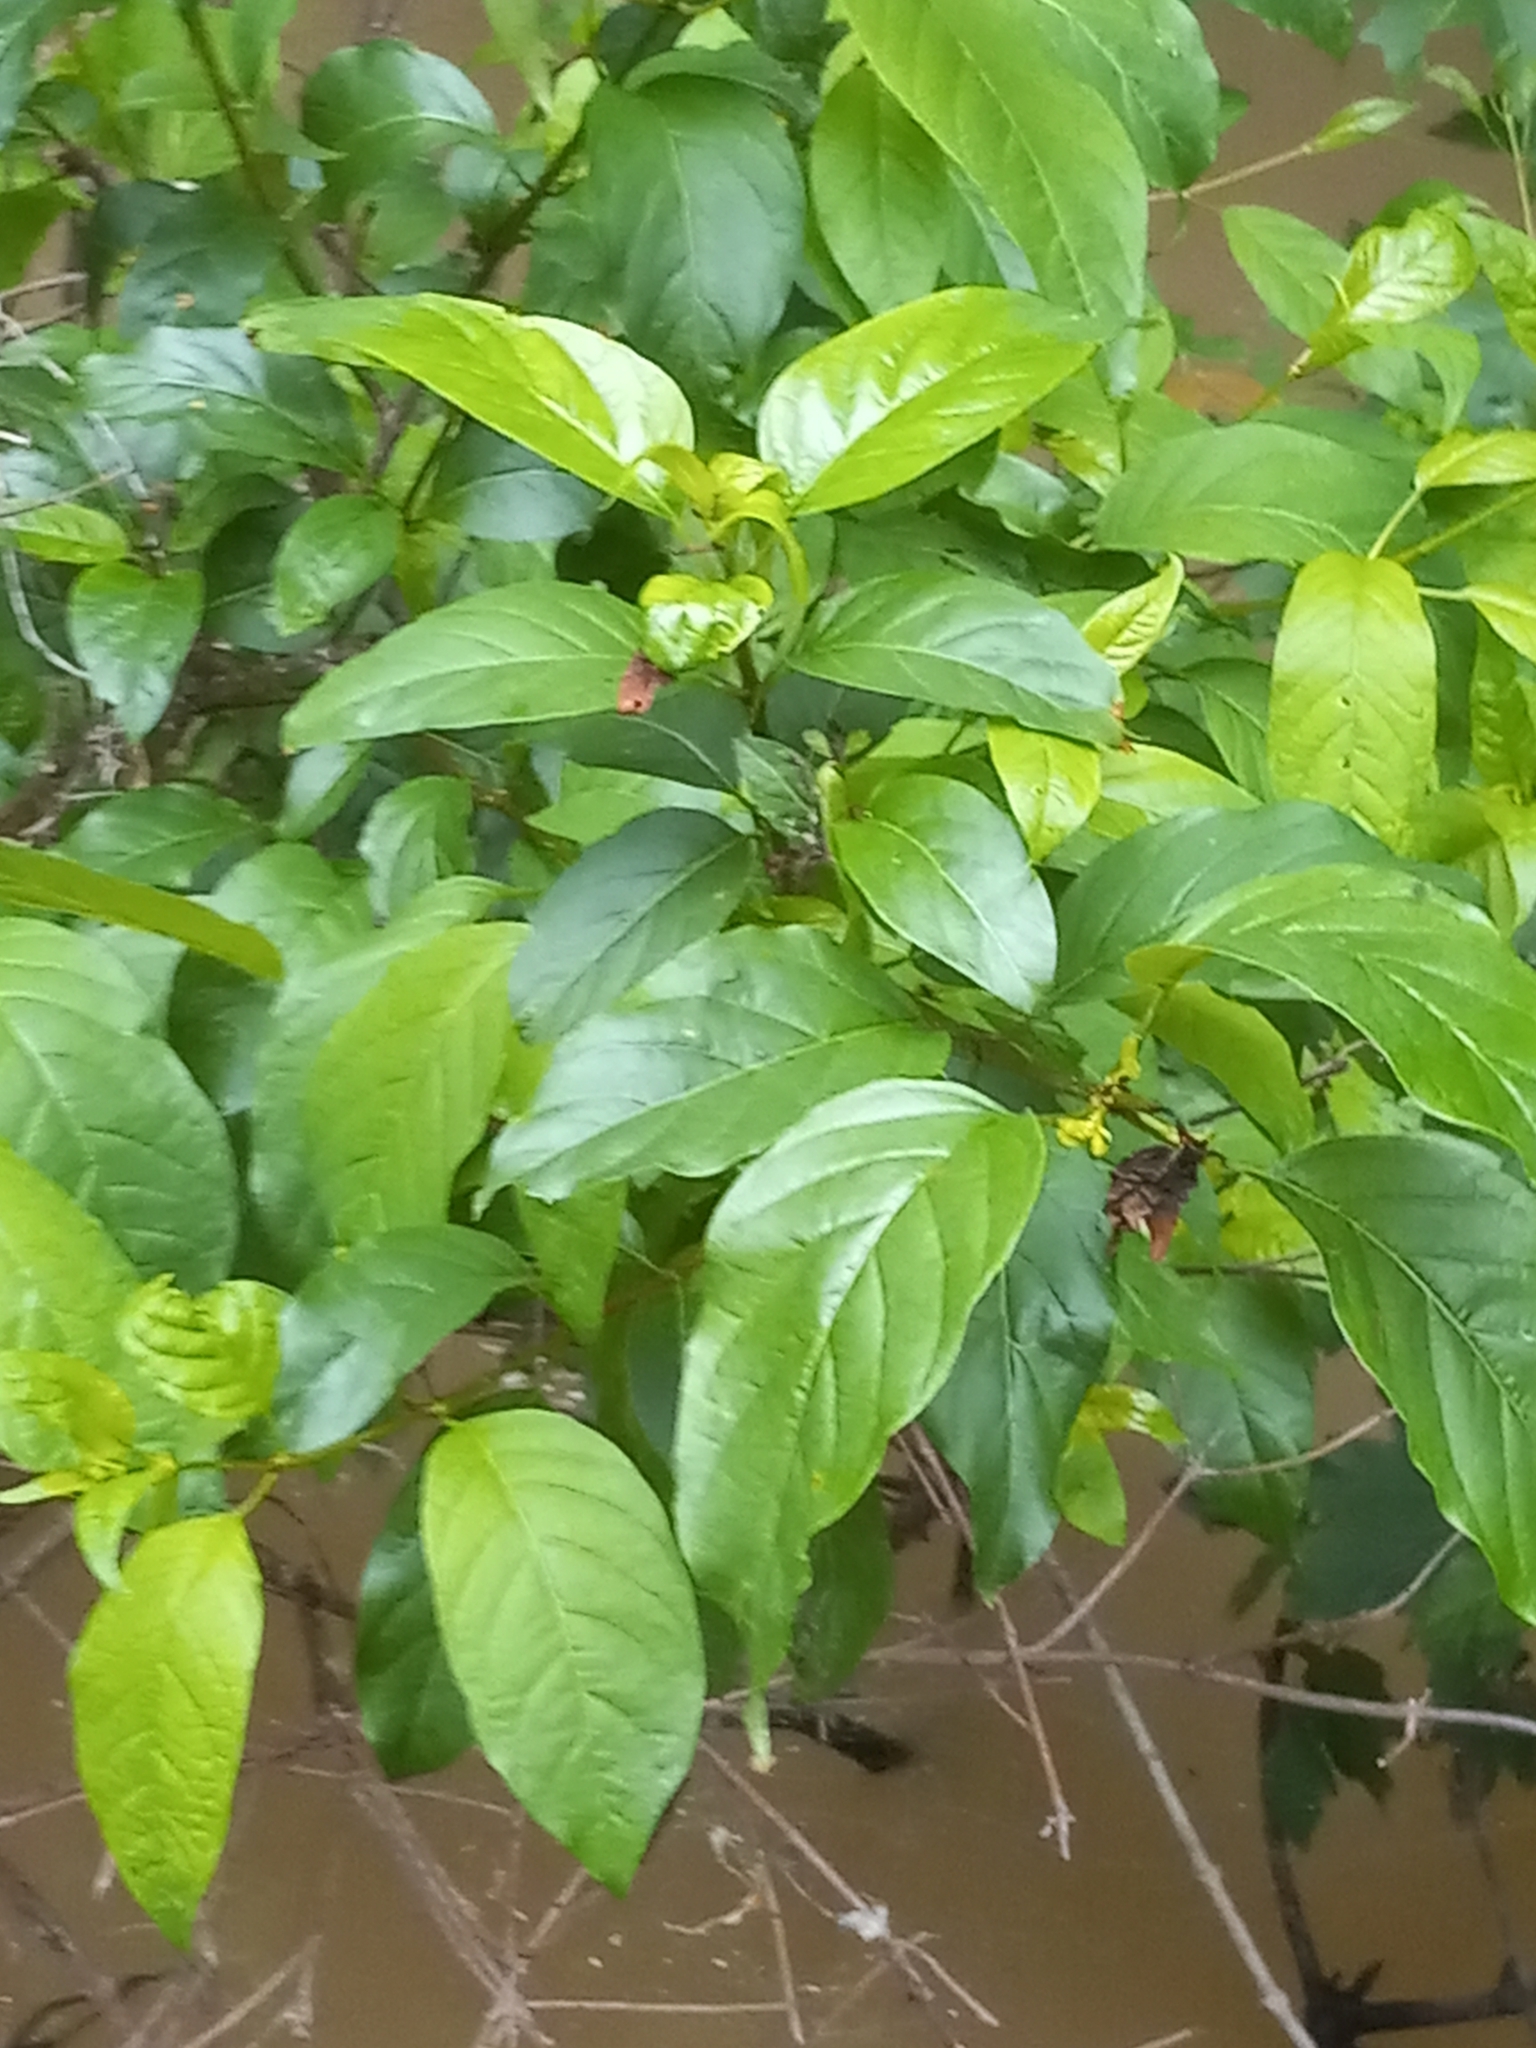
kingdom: Plantae
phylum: Tracheophyta
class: Magnoliopsida
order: Rosales
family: Rhamnaceae
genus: Frangula
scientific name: Frangula caroliniana
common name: Carolina buckthorn
